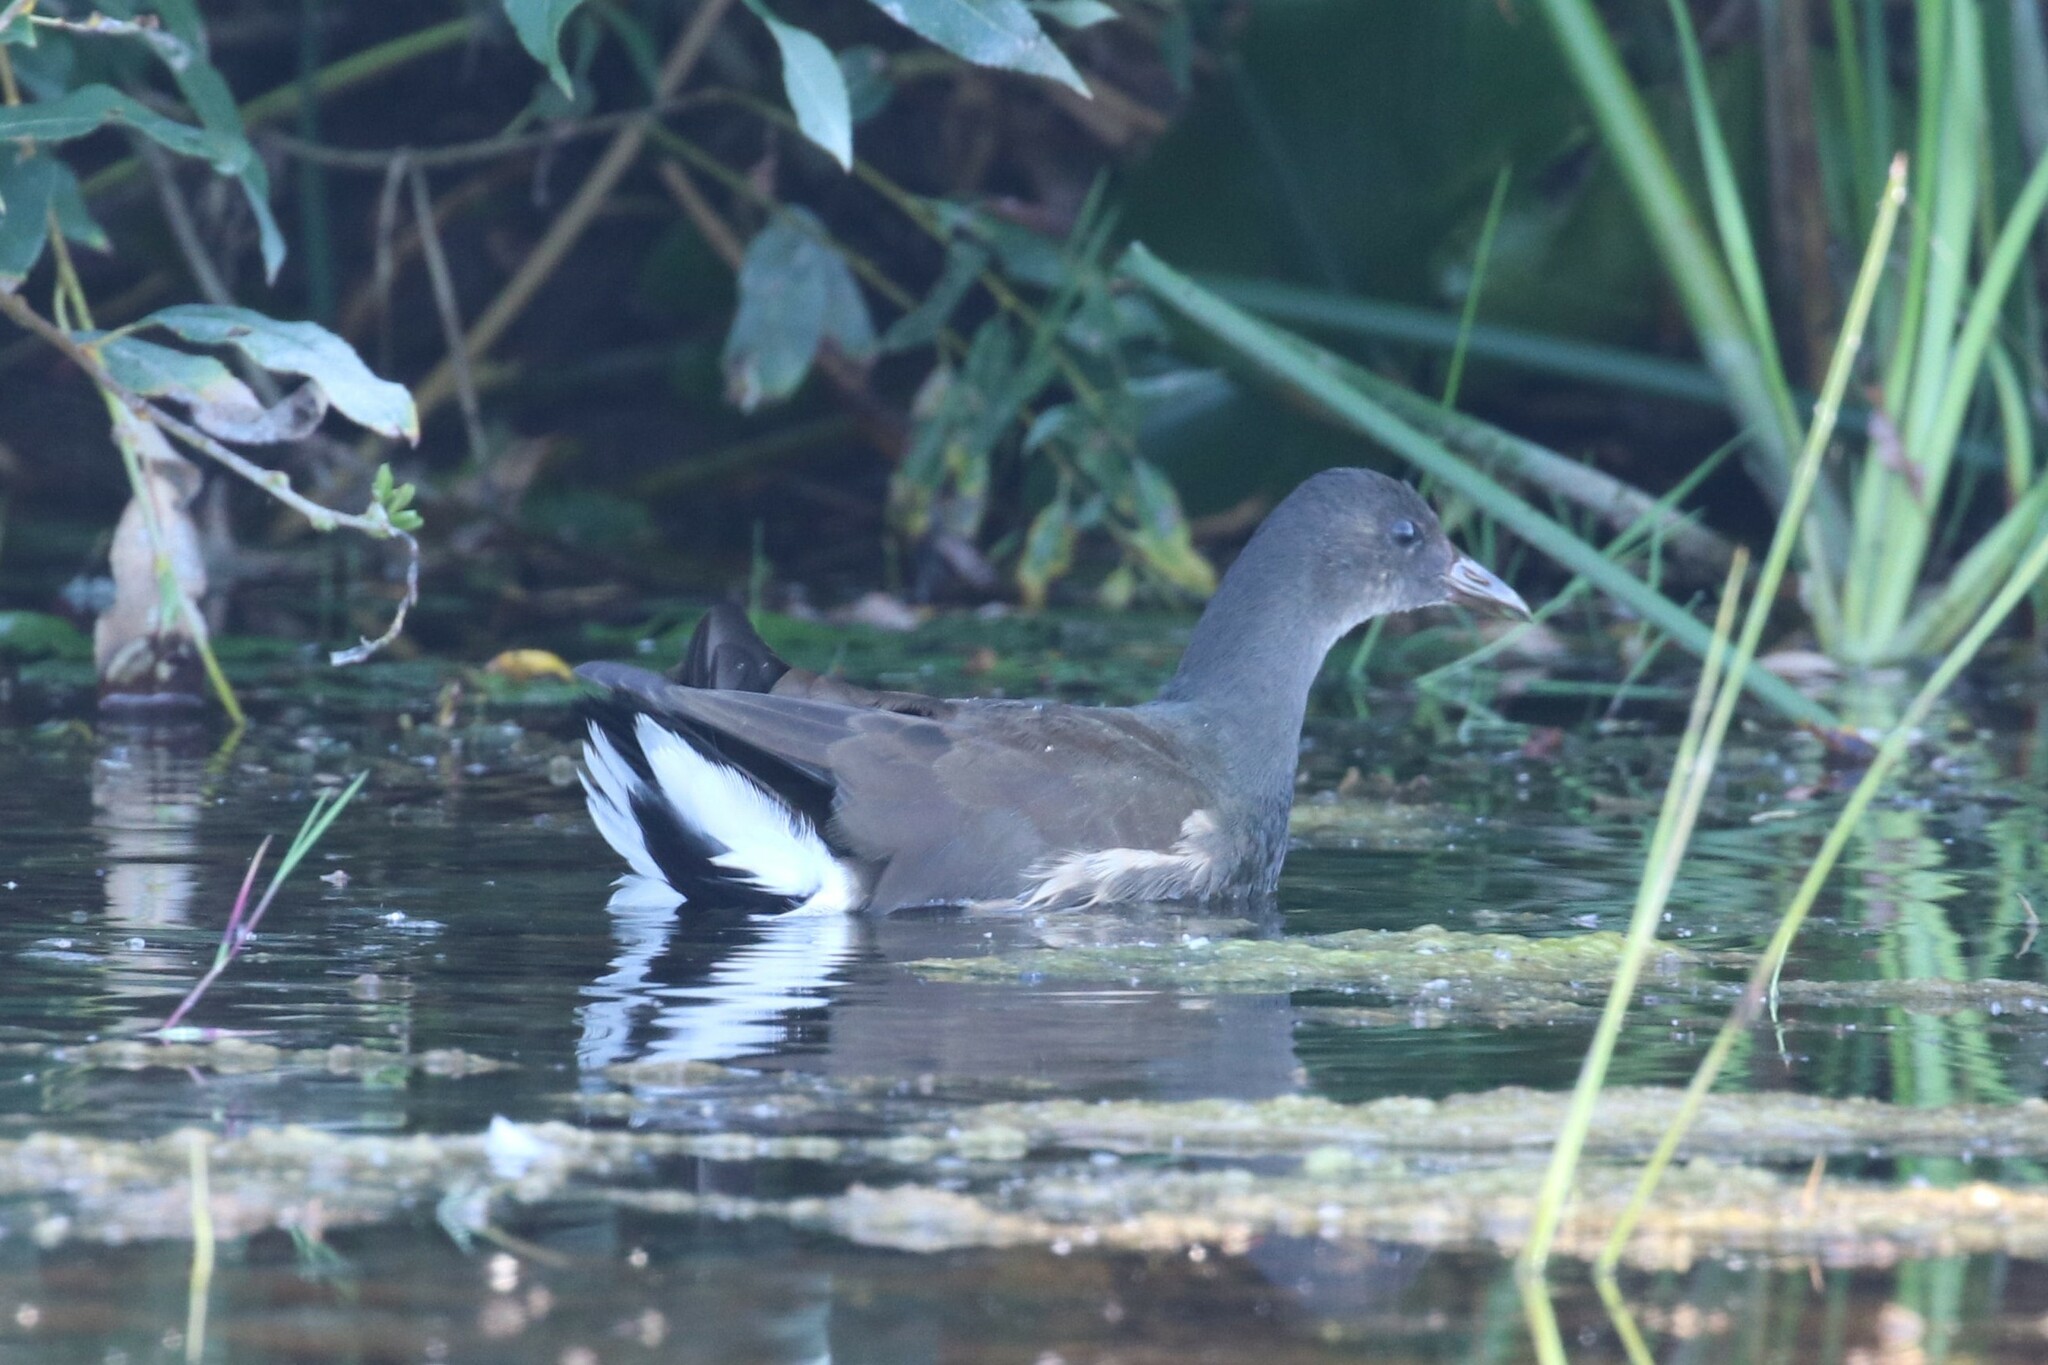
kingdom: Animalia
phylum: Chordata
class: Aves
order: Gruiformes
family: Rallidae
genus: Gallinula
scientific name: Gallinula chloropus
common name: Common moorhen
